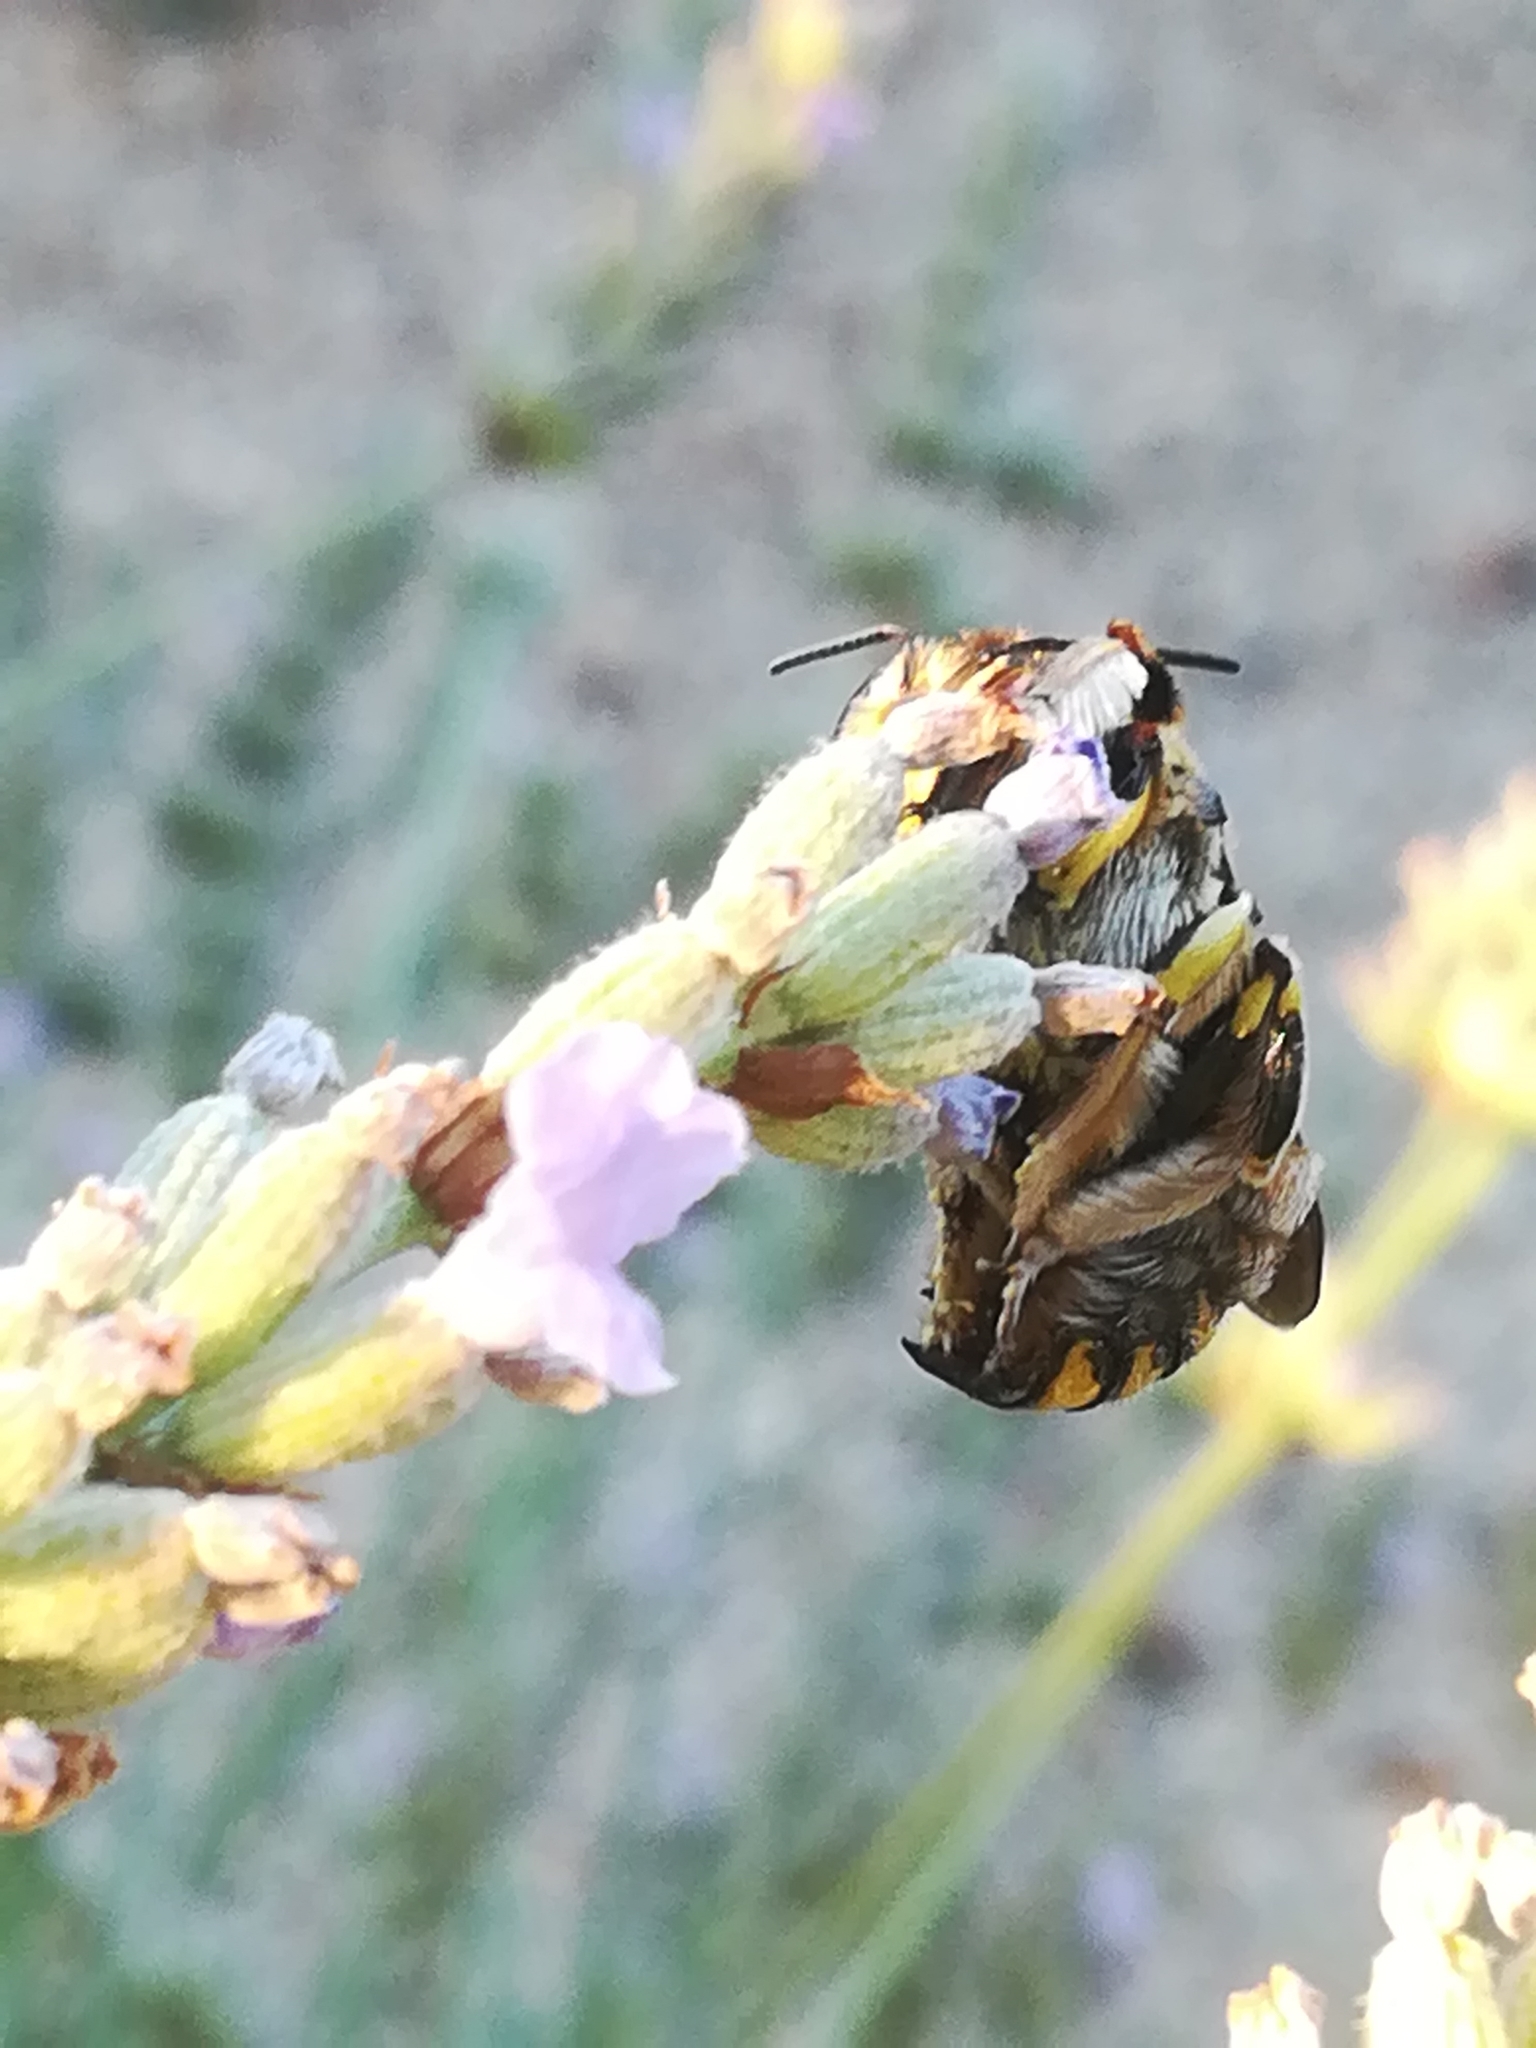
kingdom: Animalia
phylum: Arthropoda
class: Insecta
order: Hymenoptera
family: Megachilidae
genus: Anthidium
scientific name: Anthidium florentinum
